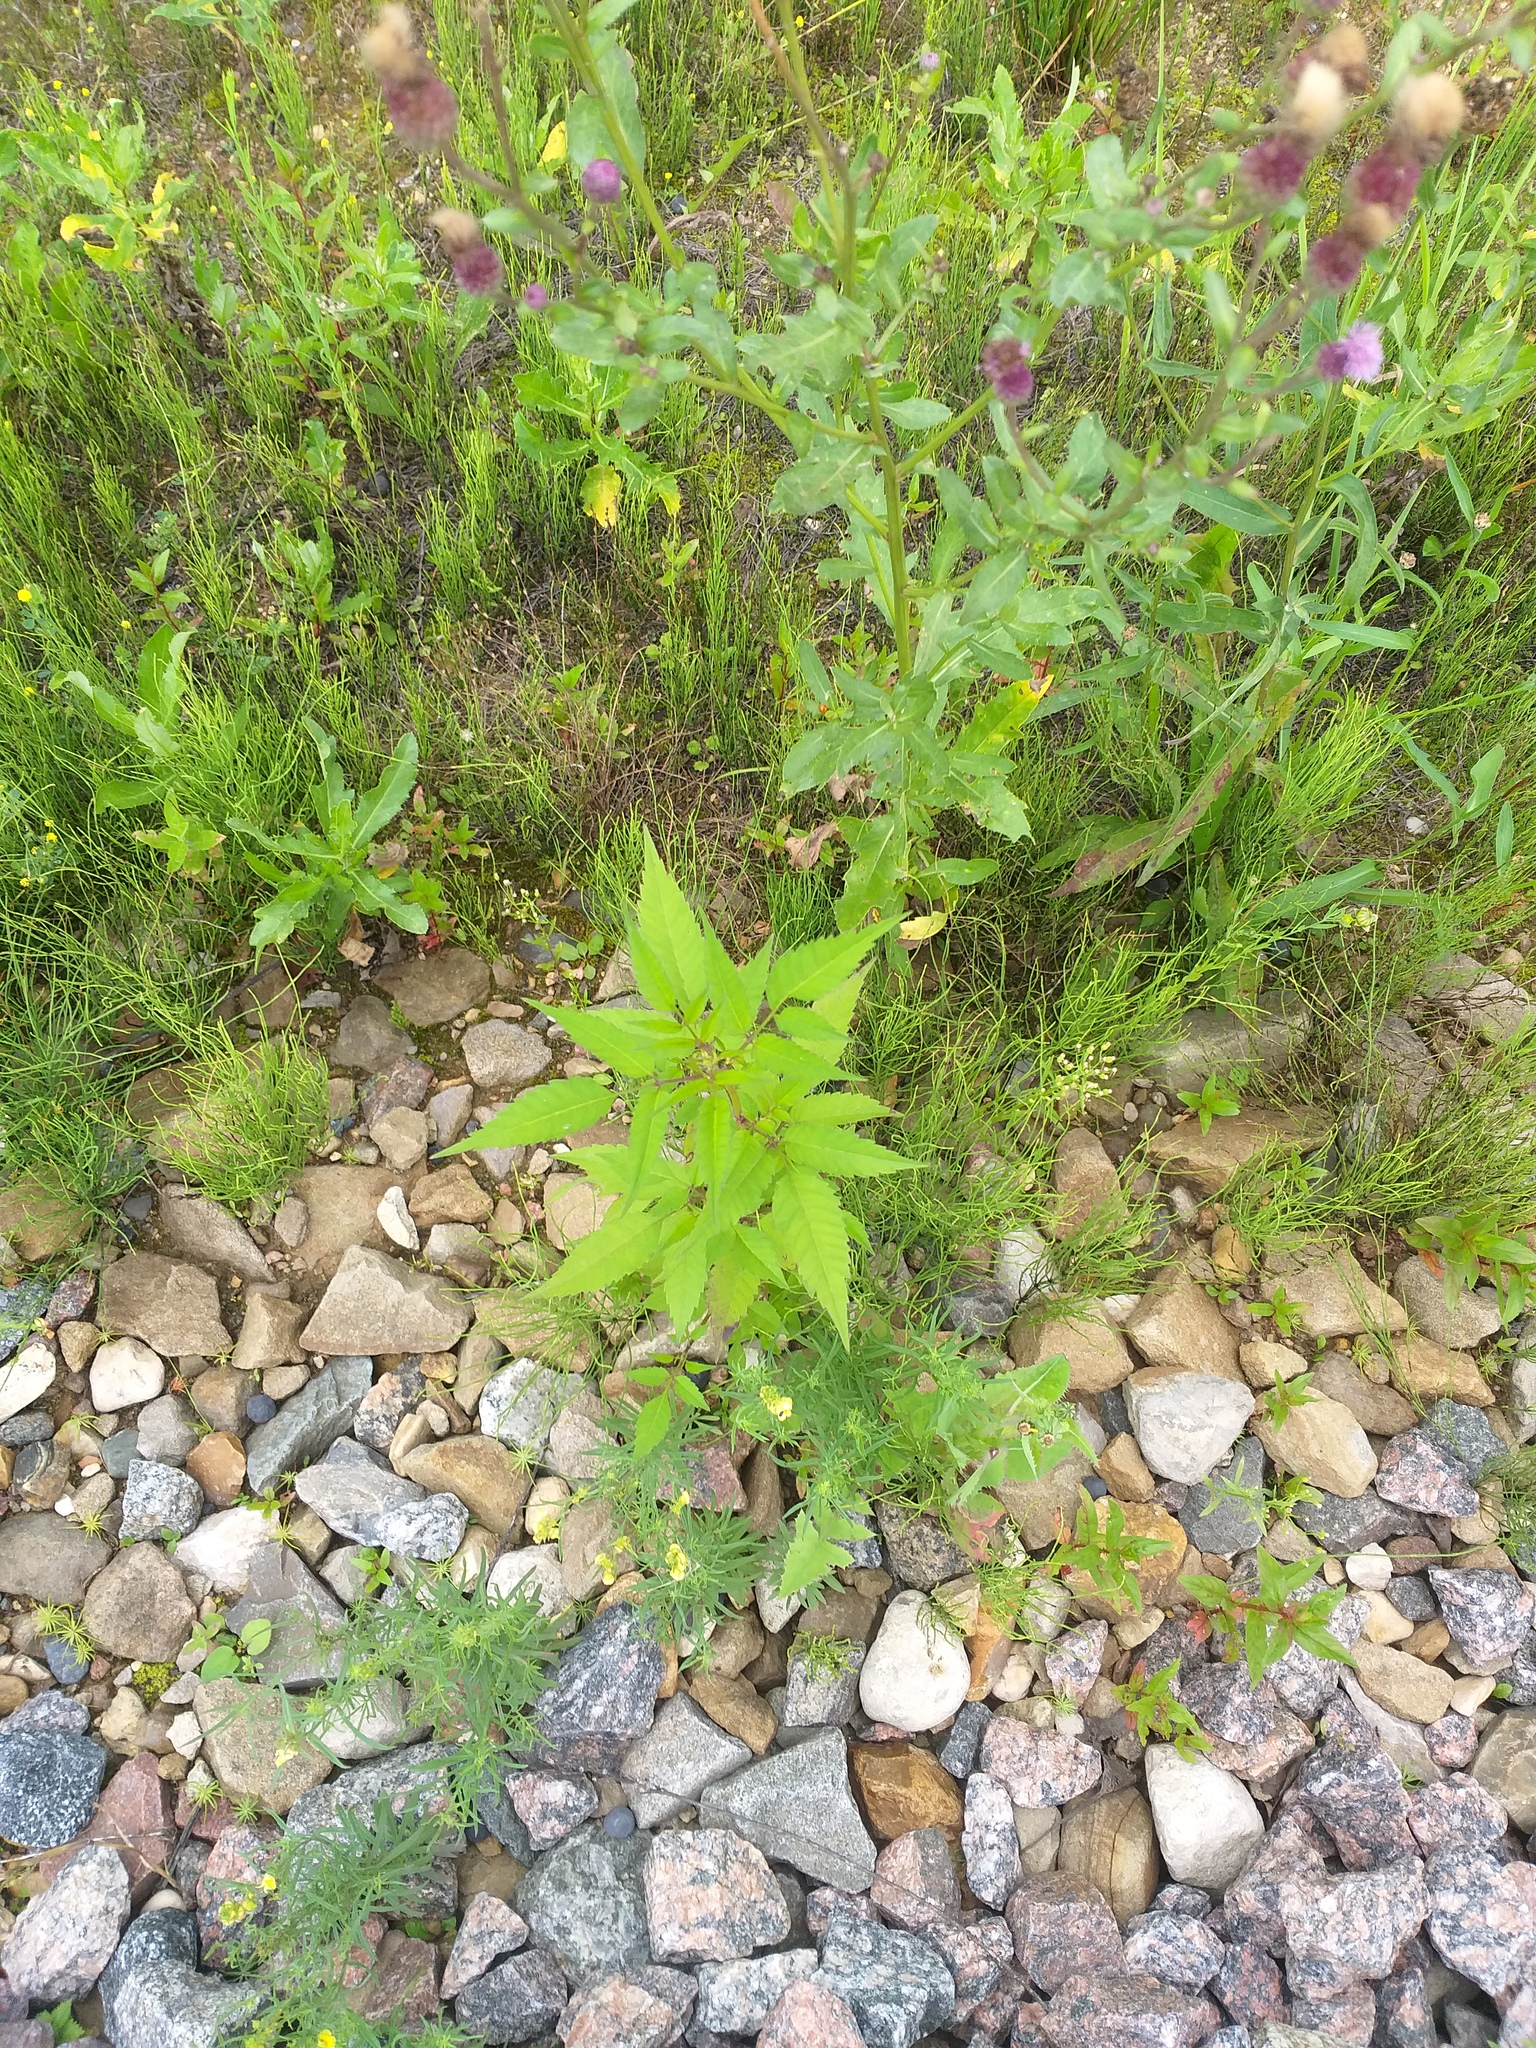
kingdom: Plantae
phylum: Tracheophyta
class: Magnoliopsida
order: Asterales
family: Asteraceae
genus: Bidens
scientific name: Bidens frondosa
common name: Beggarticks
